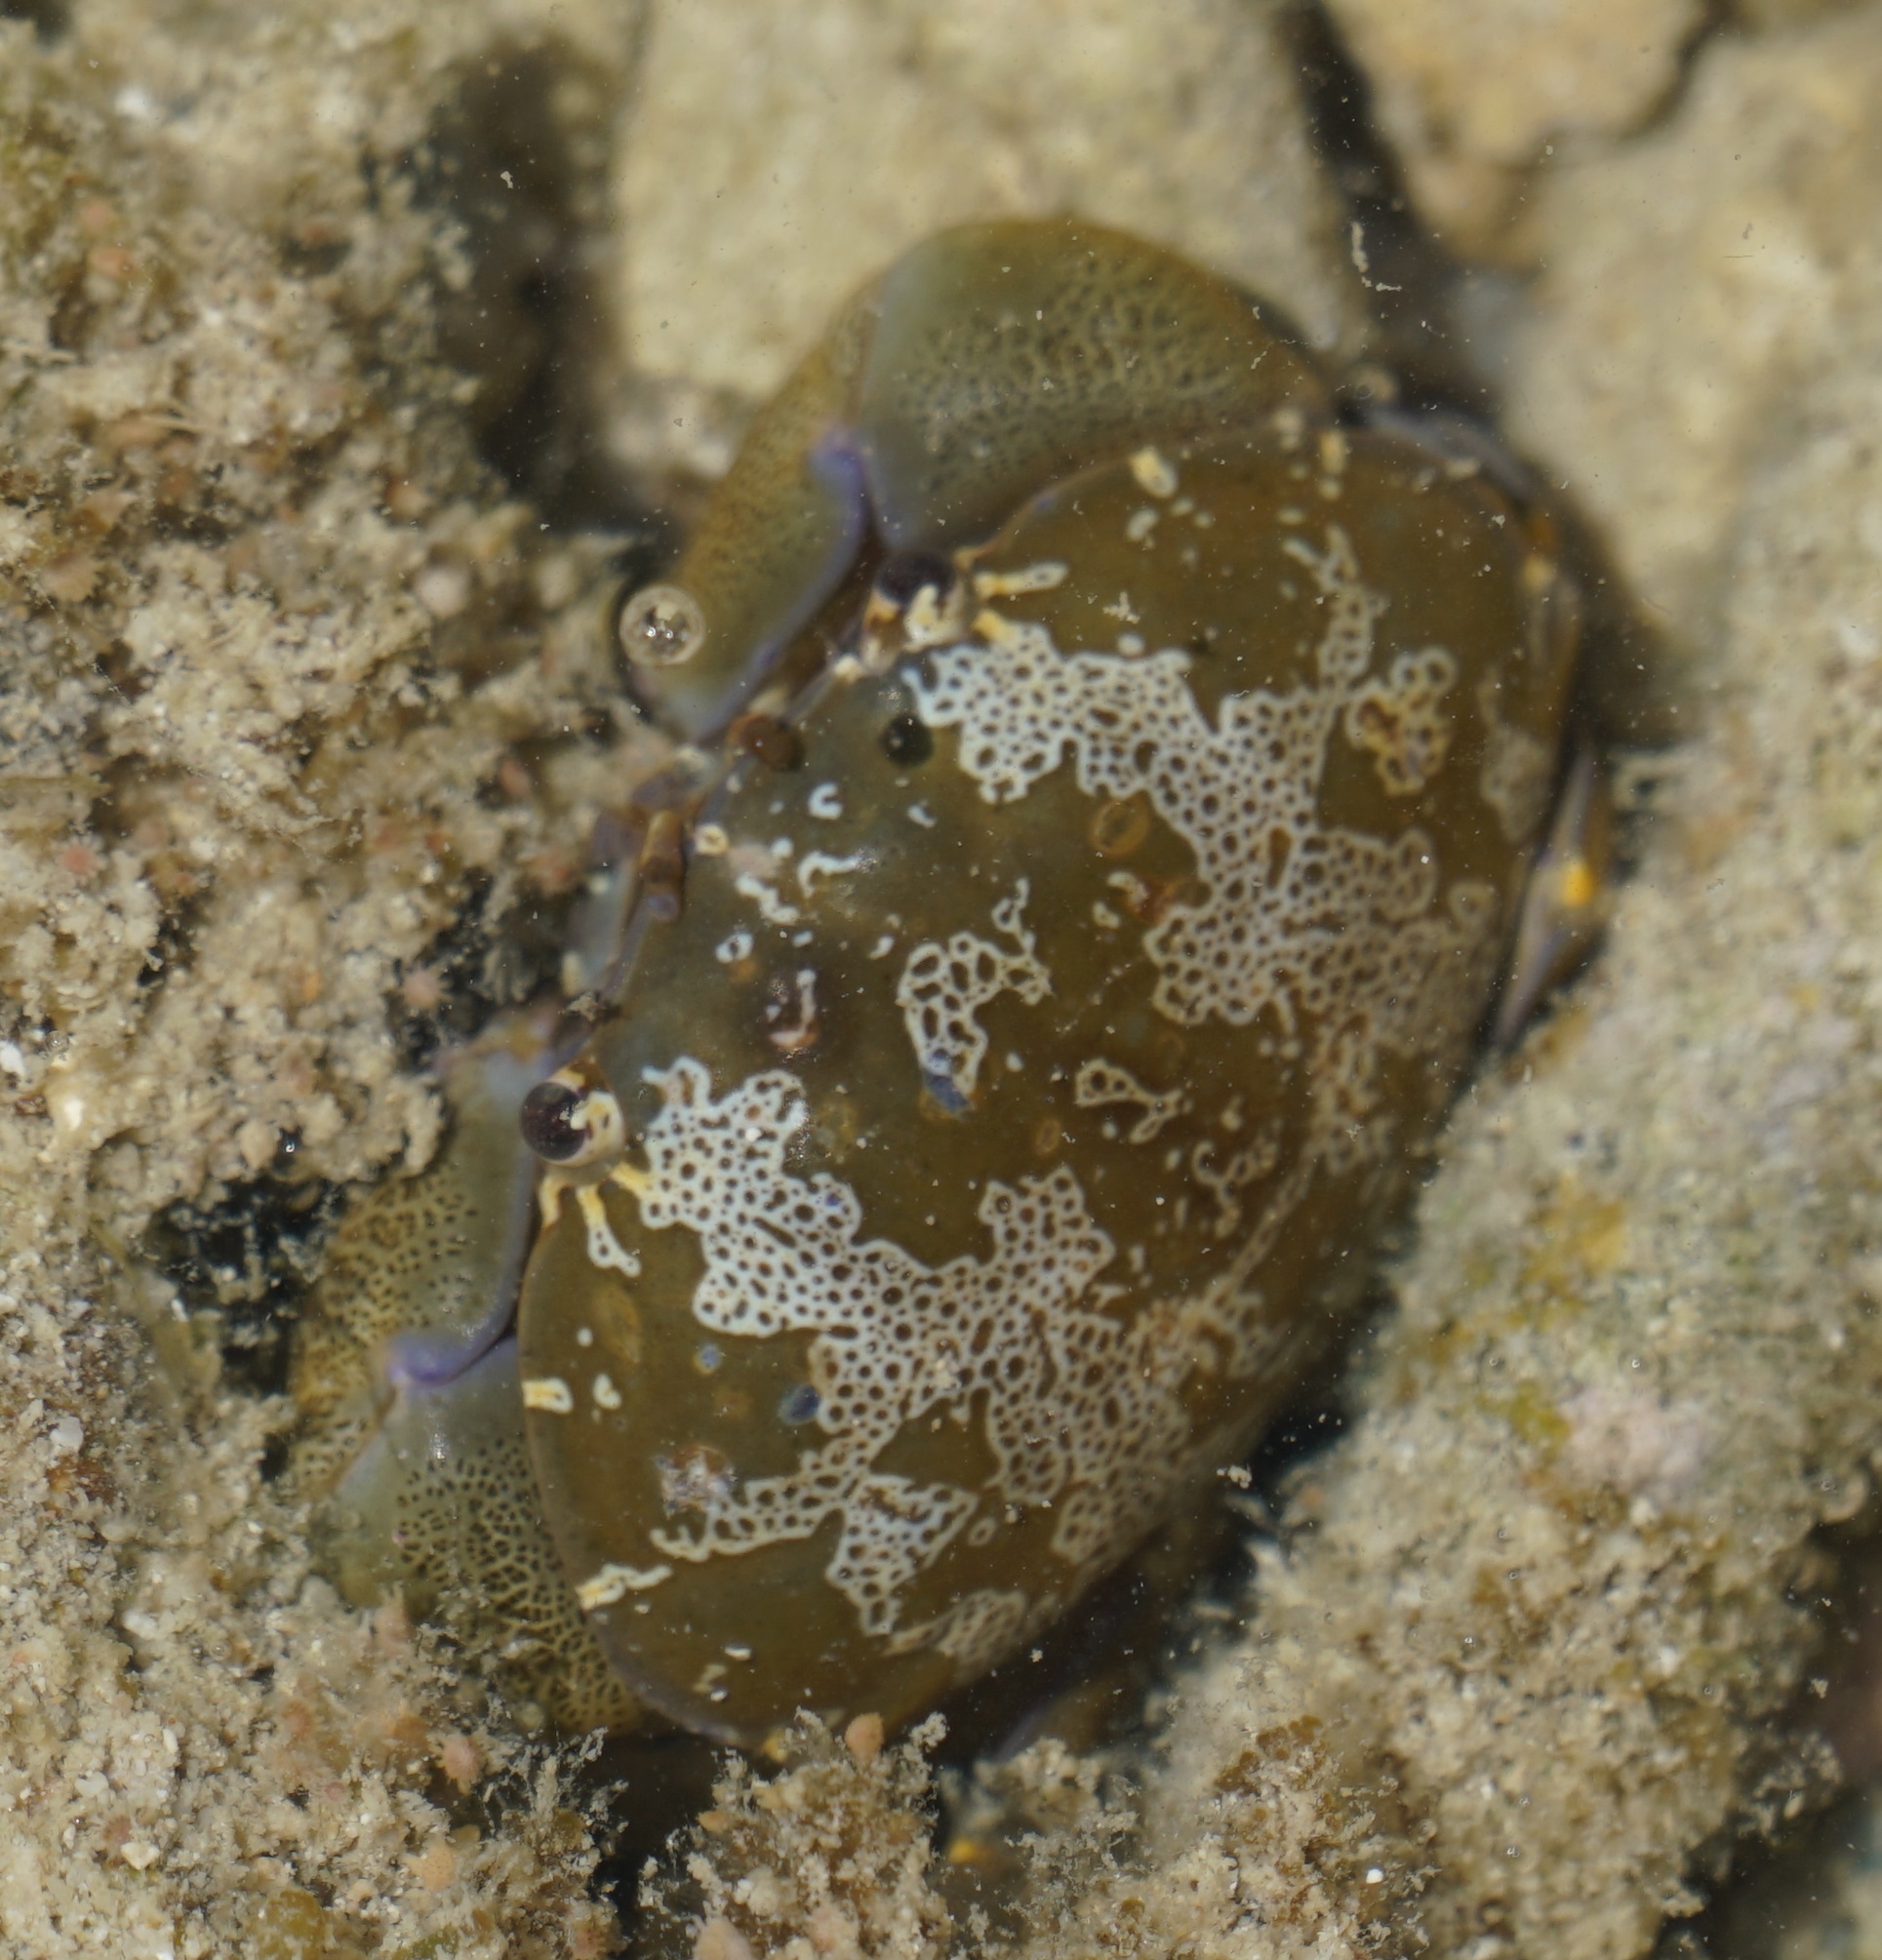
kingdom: Animalia
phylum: Arthropoda
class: Malacostraca
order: Decapoda
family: Xanthidae
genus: Atergatis
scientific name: Atergatis floridus
